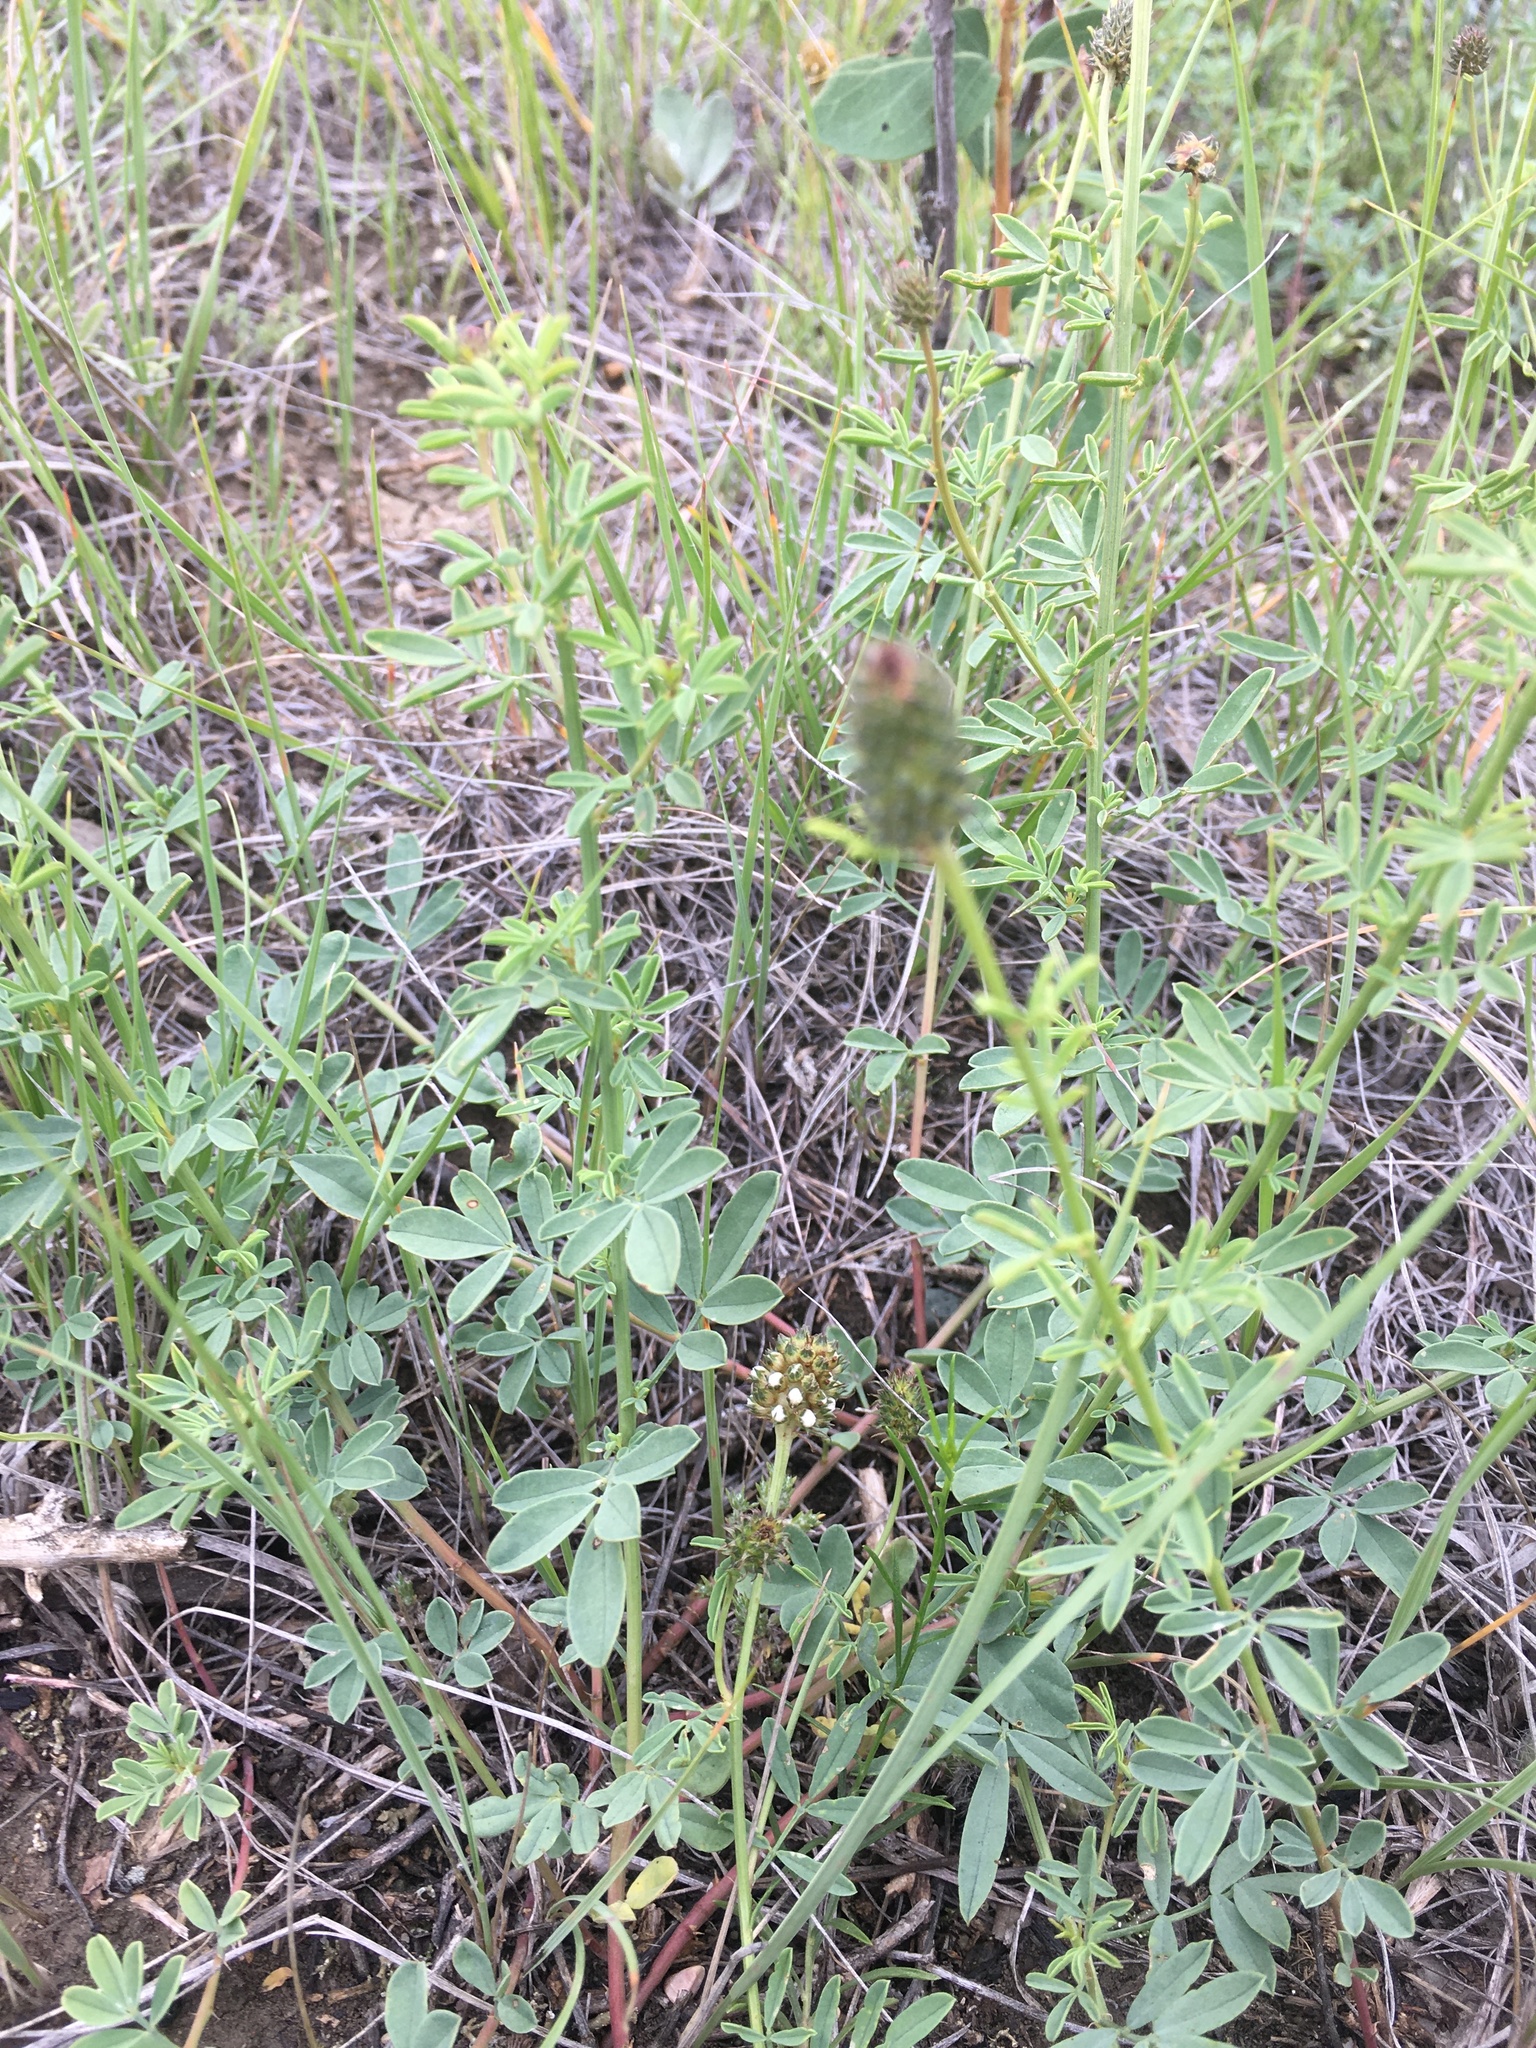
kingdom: Plantae
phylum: Tracheophyta
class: Magnoliopsida
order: Fabales
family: Fabaceae
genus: Dalea
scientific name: Dalea candida
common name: White prairie-clover
